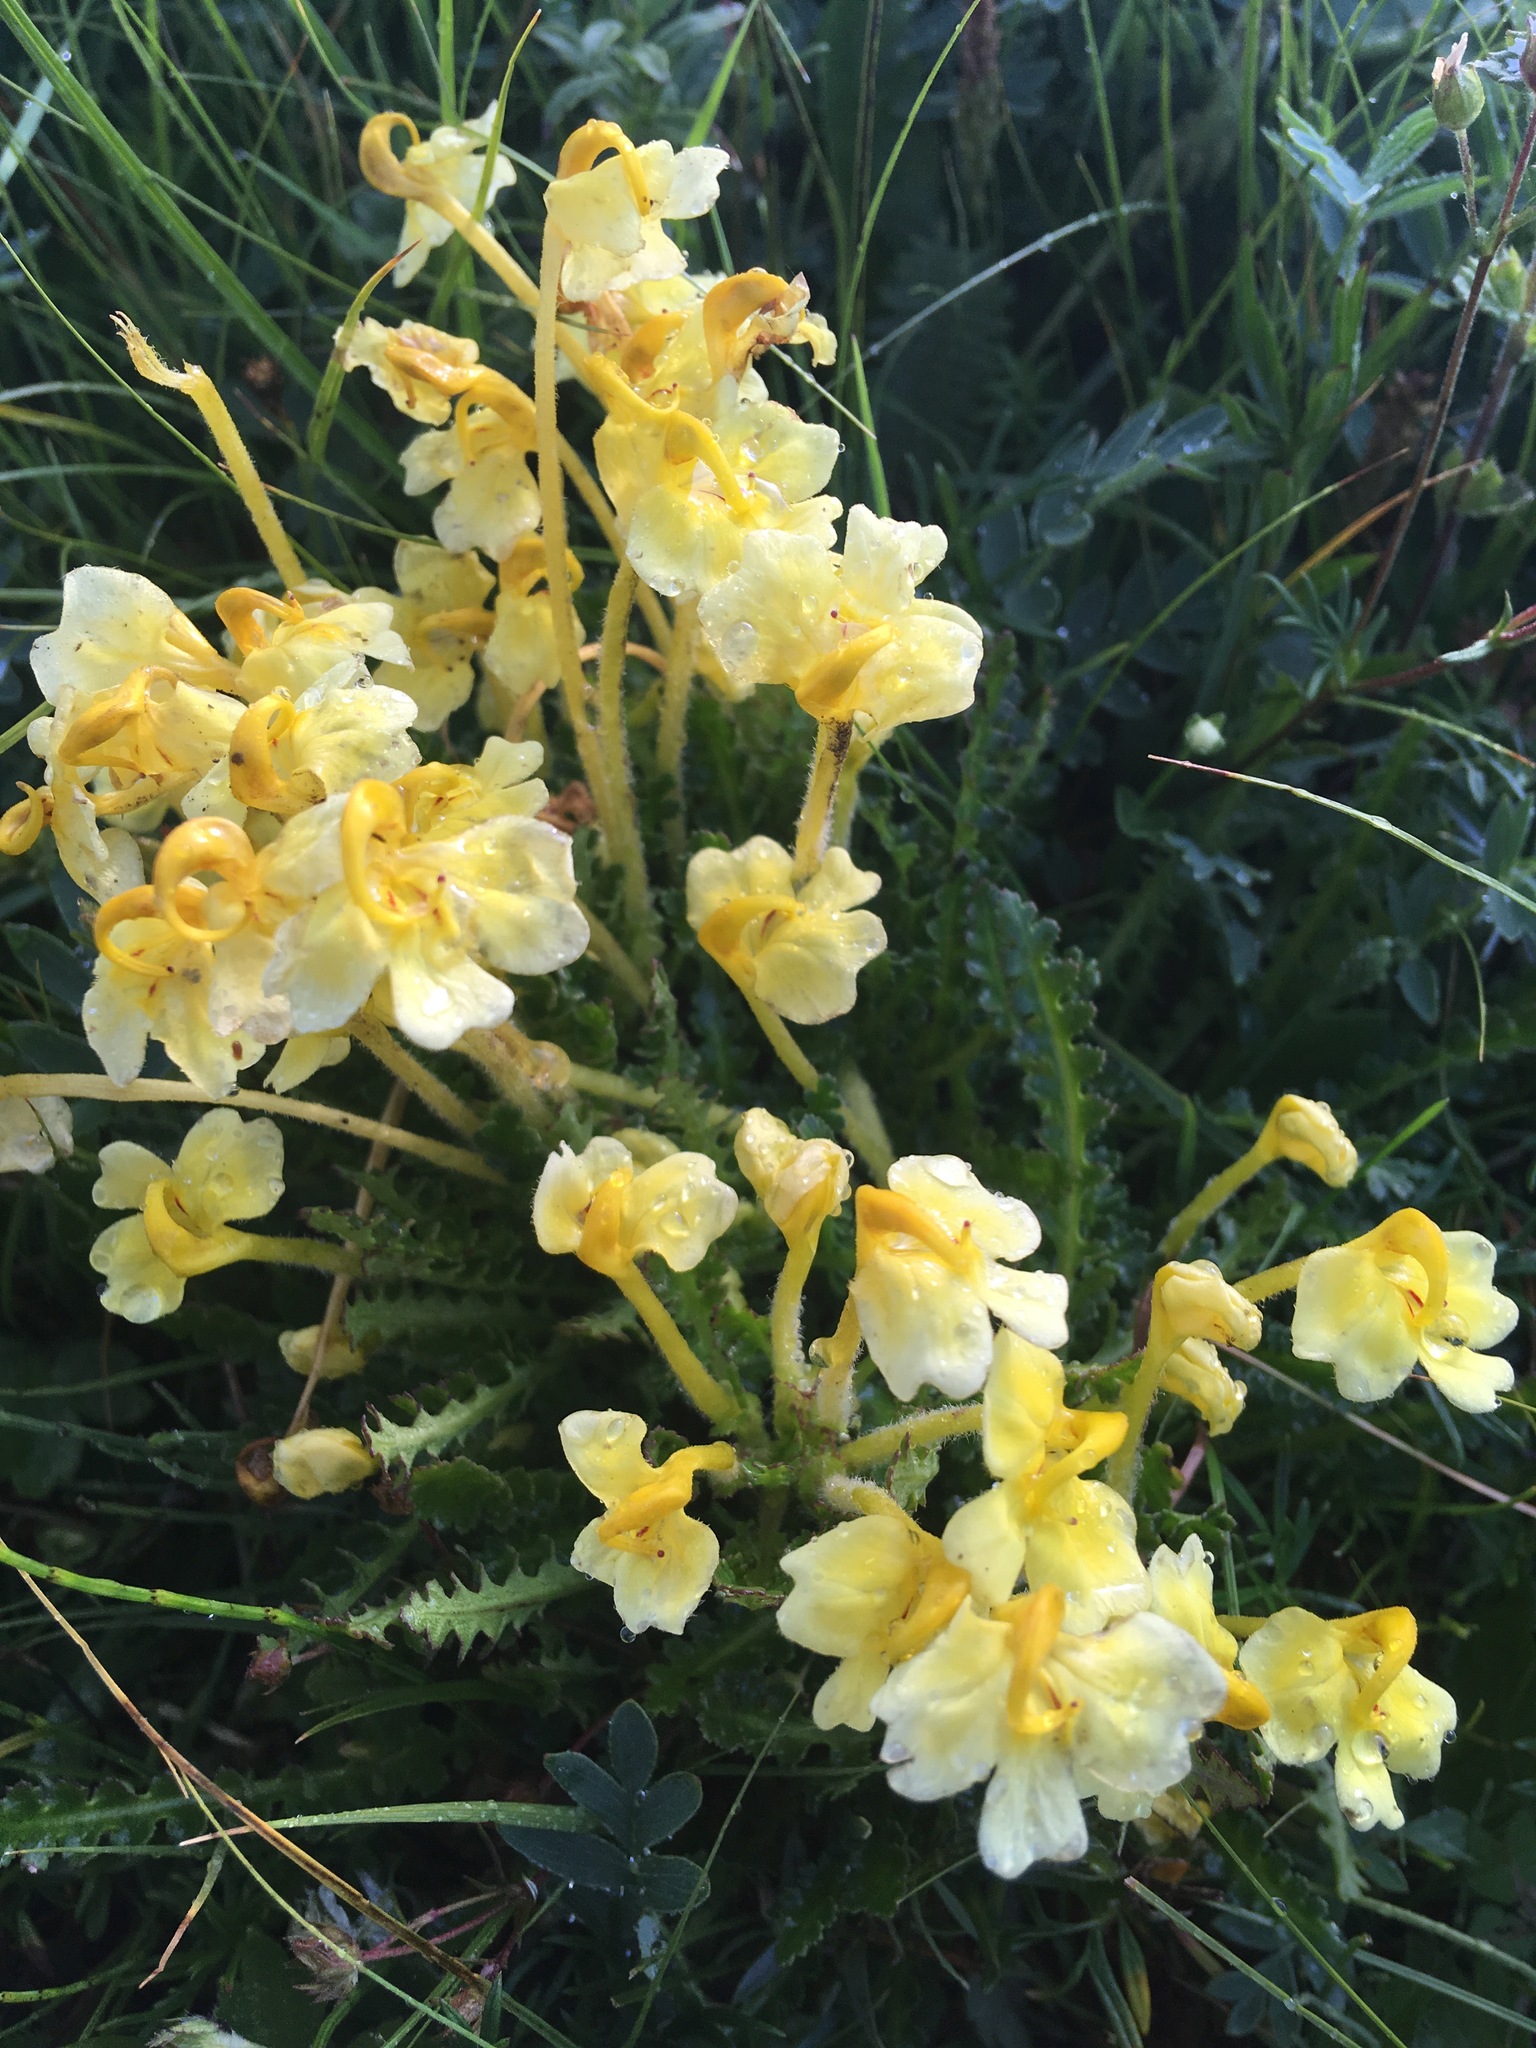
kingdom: Plantae
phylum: Tracheophyta
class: Magnoliopsida
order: Lamiales
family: Orobanchaceae
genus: Pedicularis
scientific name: Pedicularis longiflora
